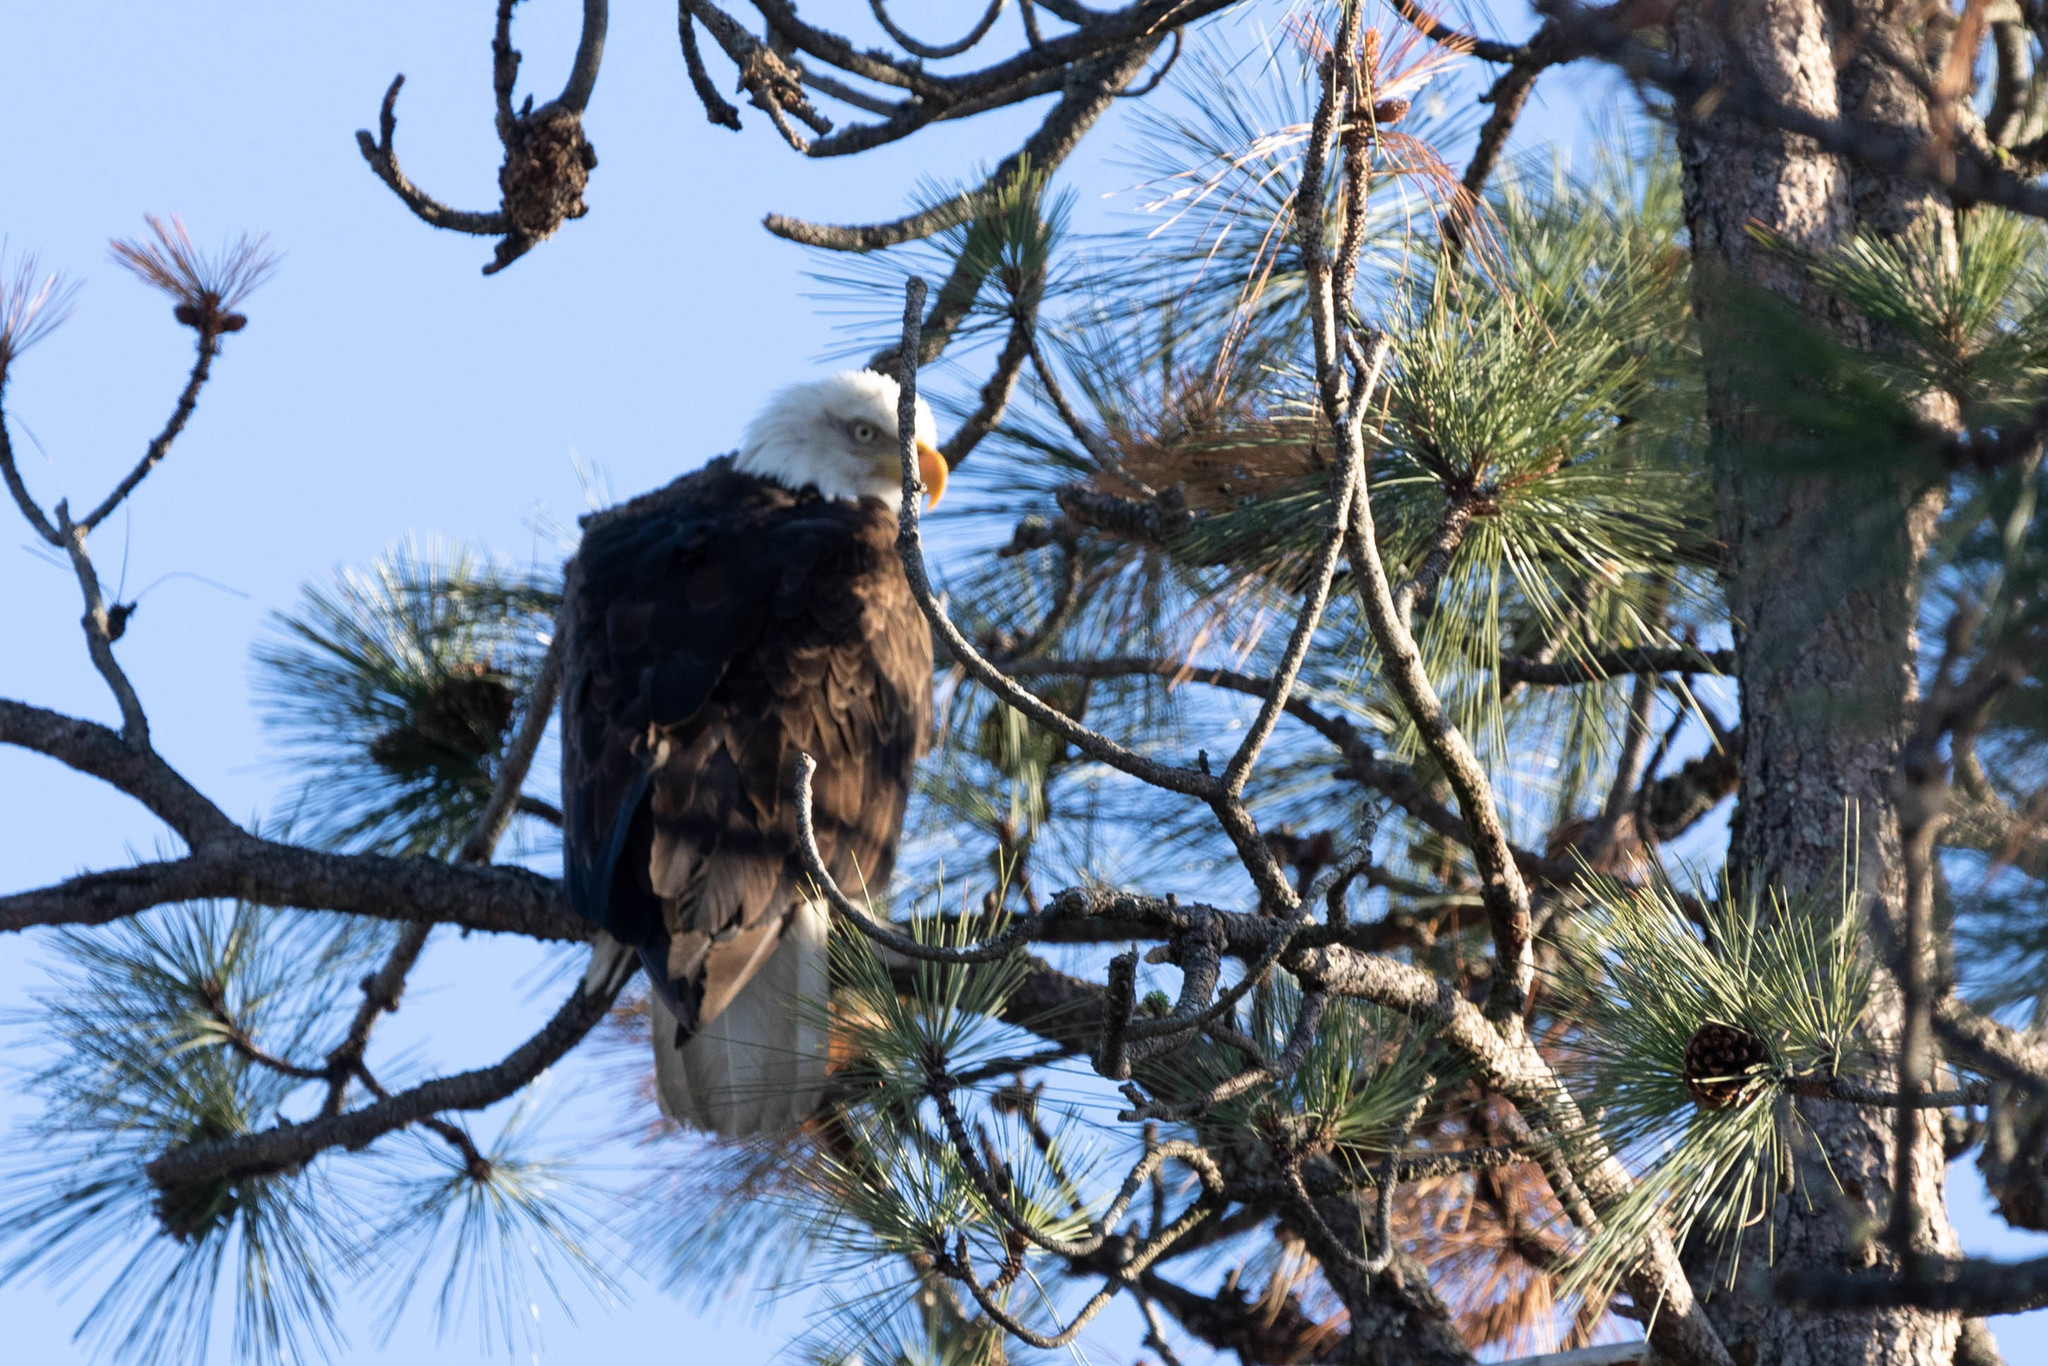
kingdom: Animalia
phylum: Chordata
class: Aves
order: Accipitriformes
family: Accipitridae
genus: Haliaeetus
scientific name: Haliaeetus leucocephalus
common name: Bald eagle
